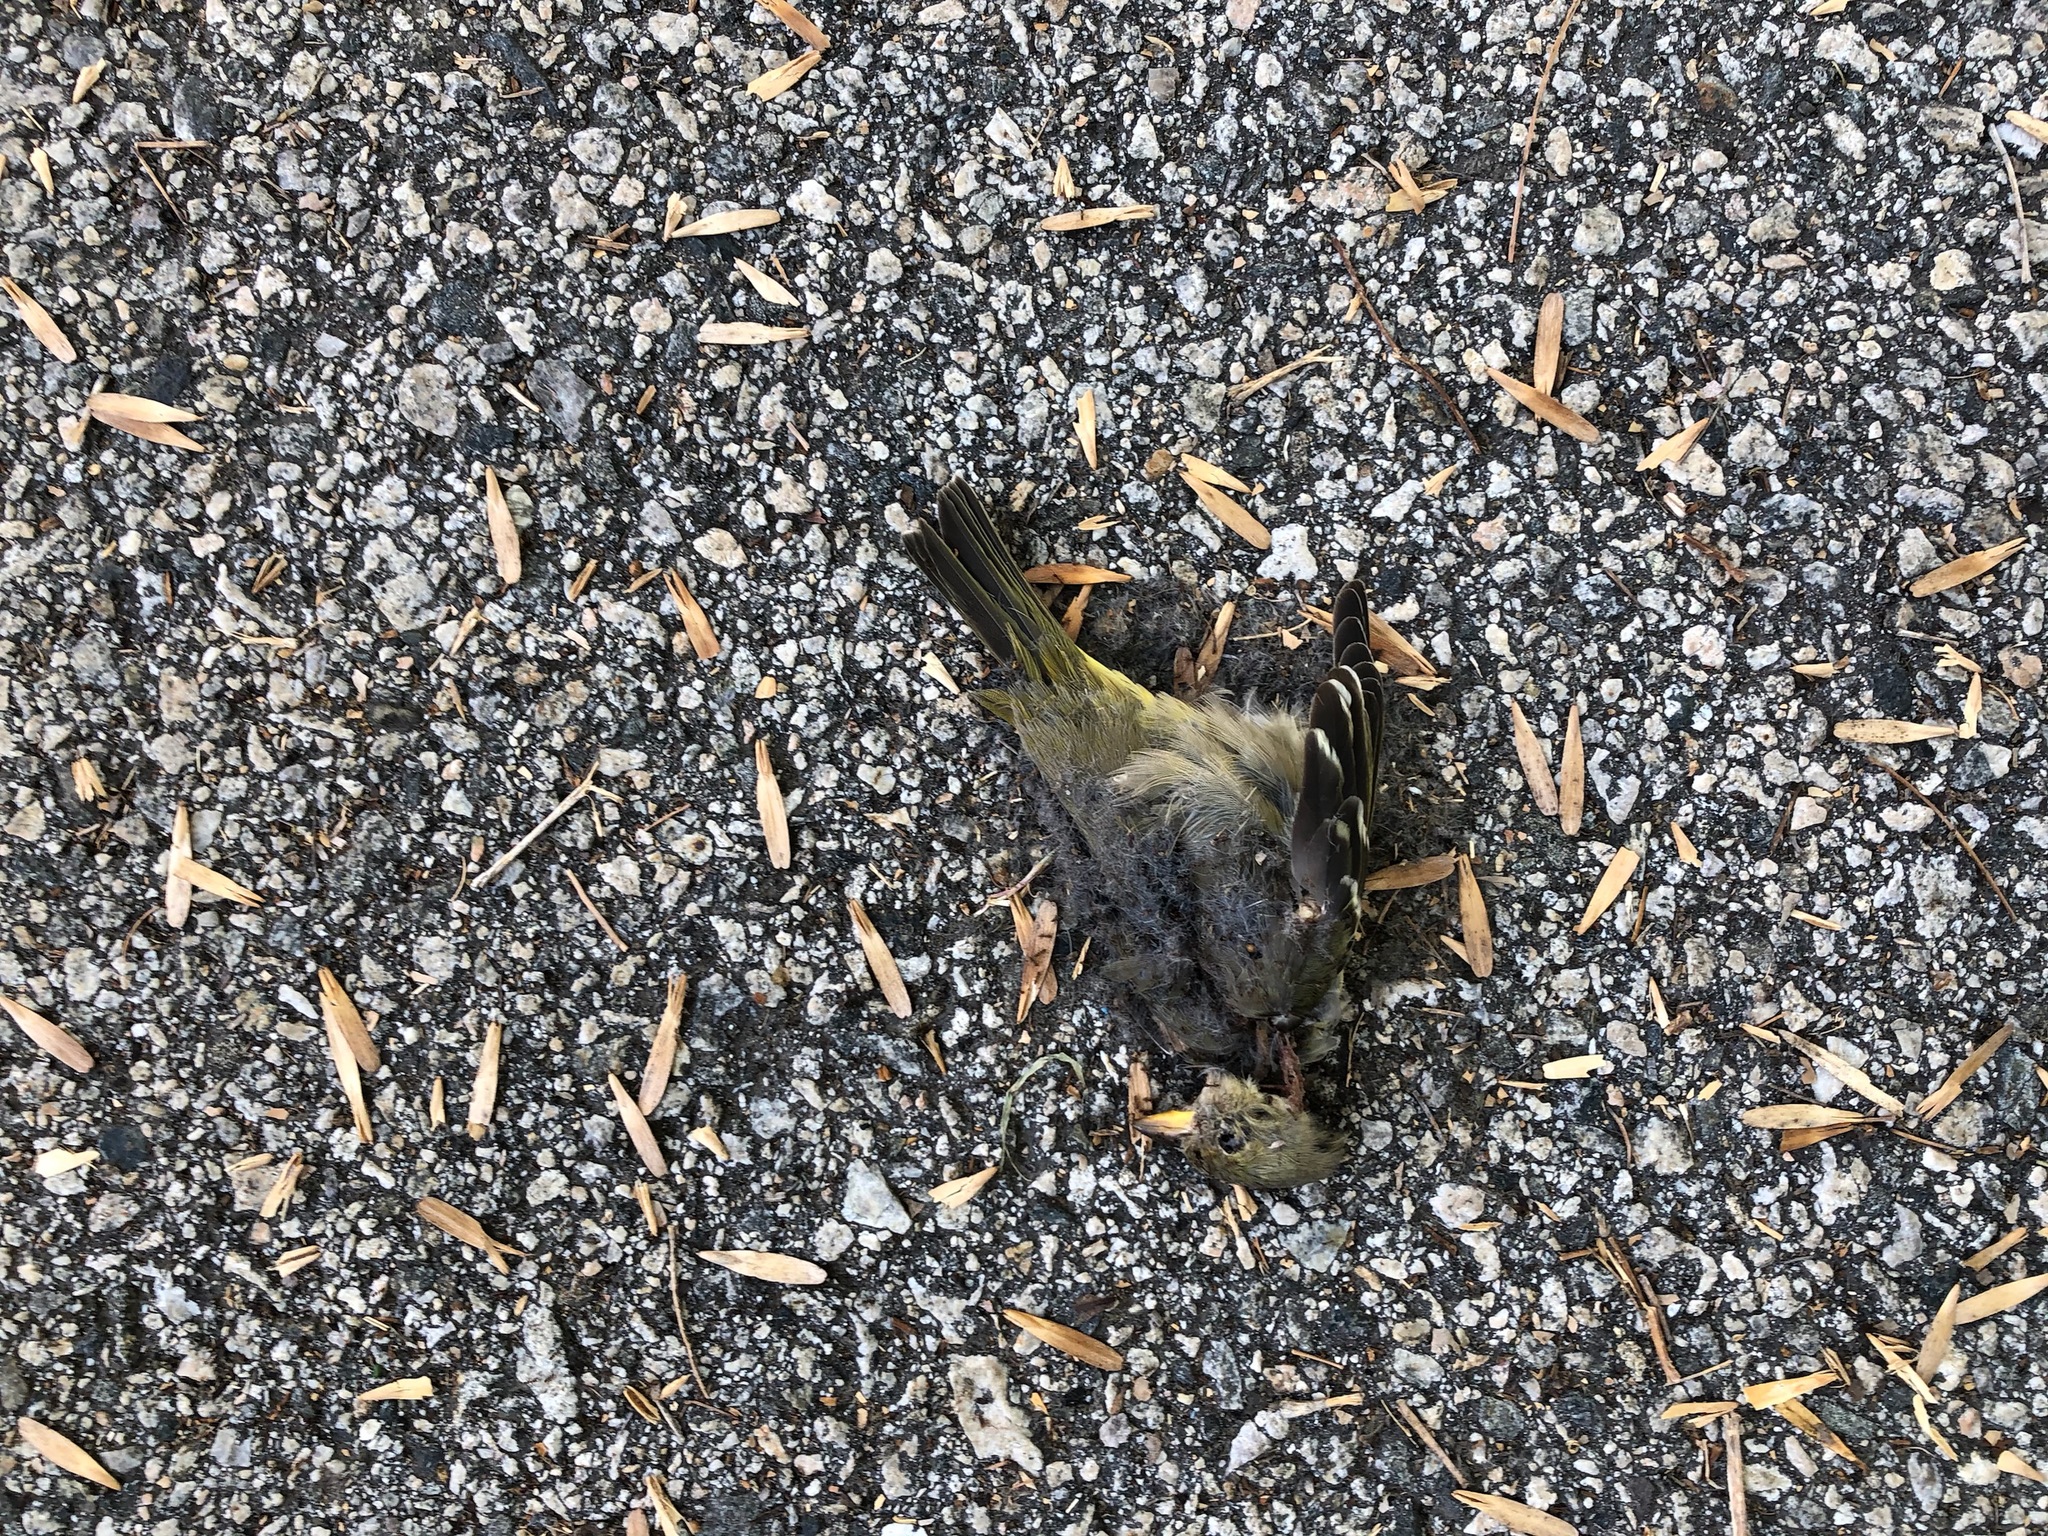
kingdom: Animalia
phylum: Chordata
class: Aves
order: Passeriformes
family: Cardinalidae
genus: Piranga
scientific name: Piranga ludoviciana
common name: Western tanager
